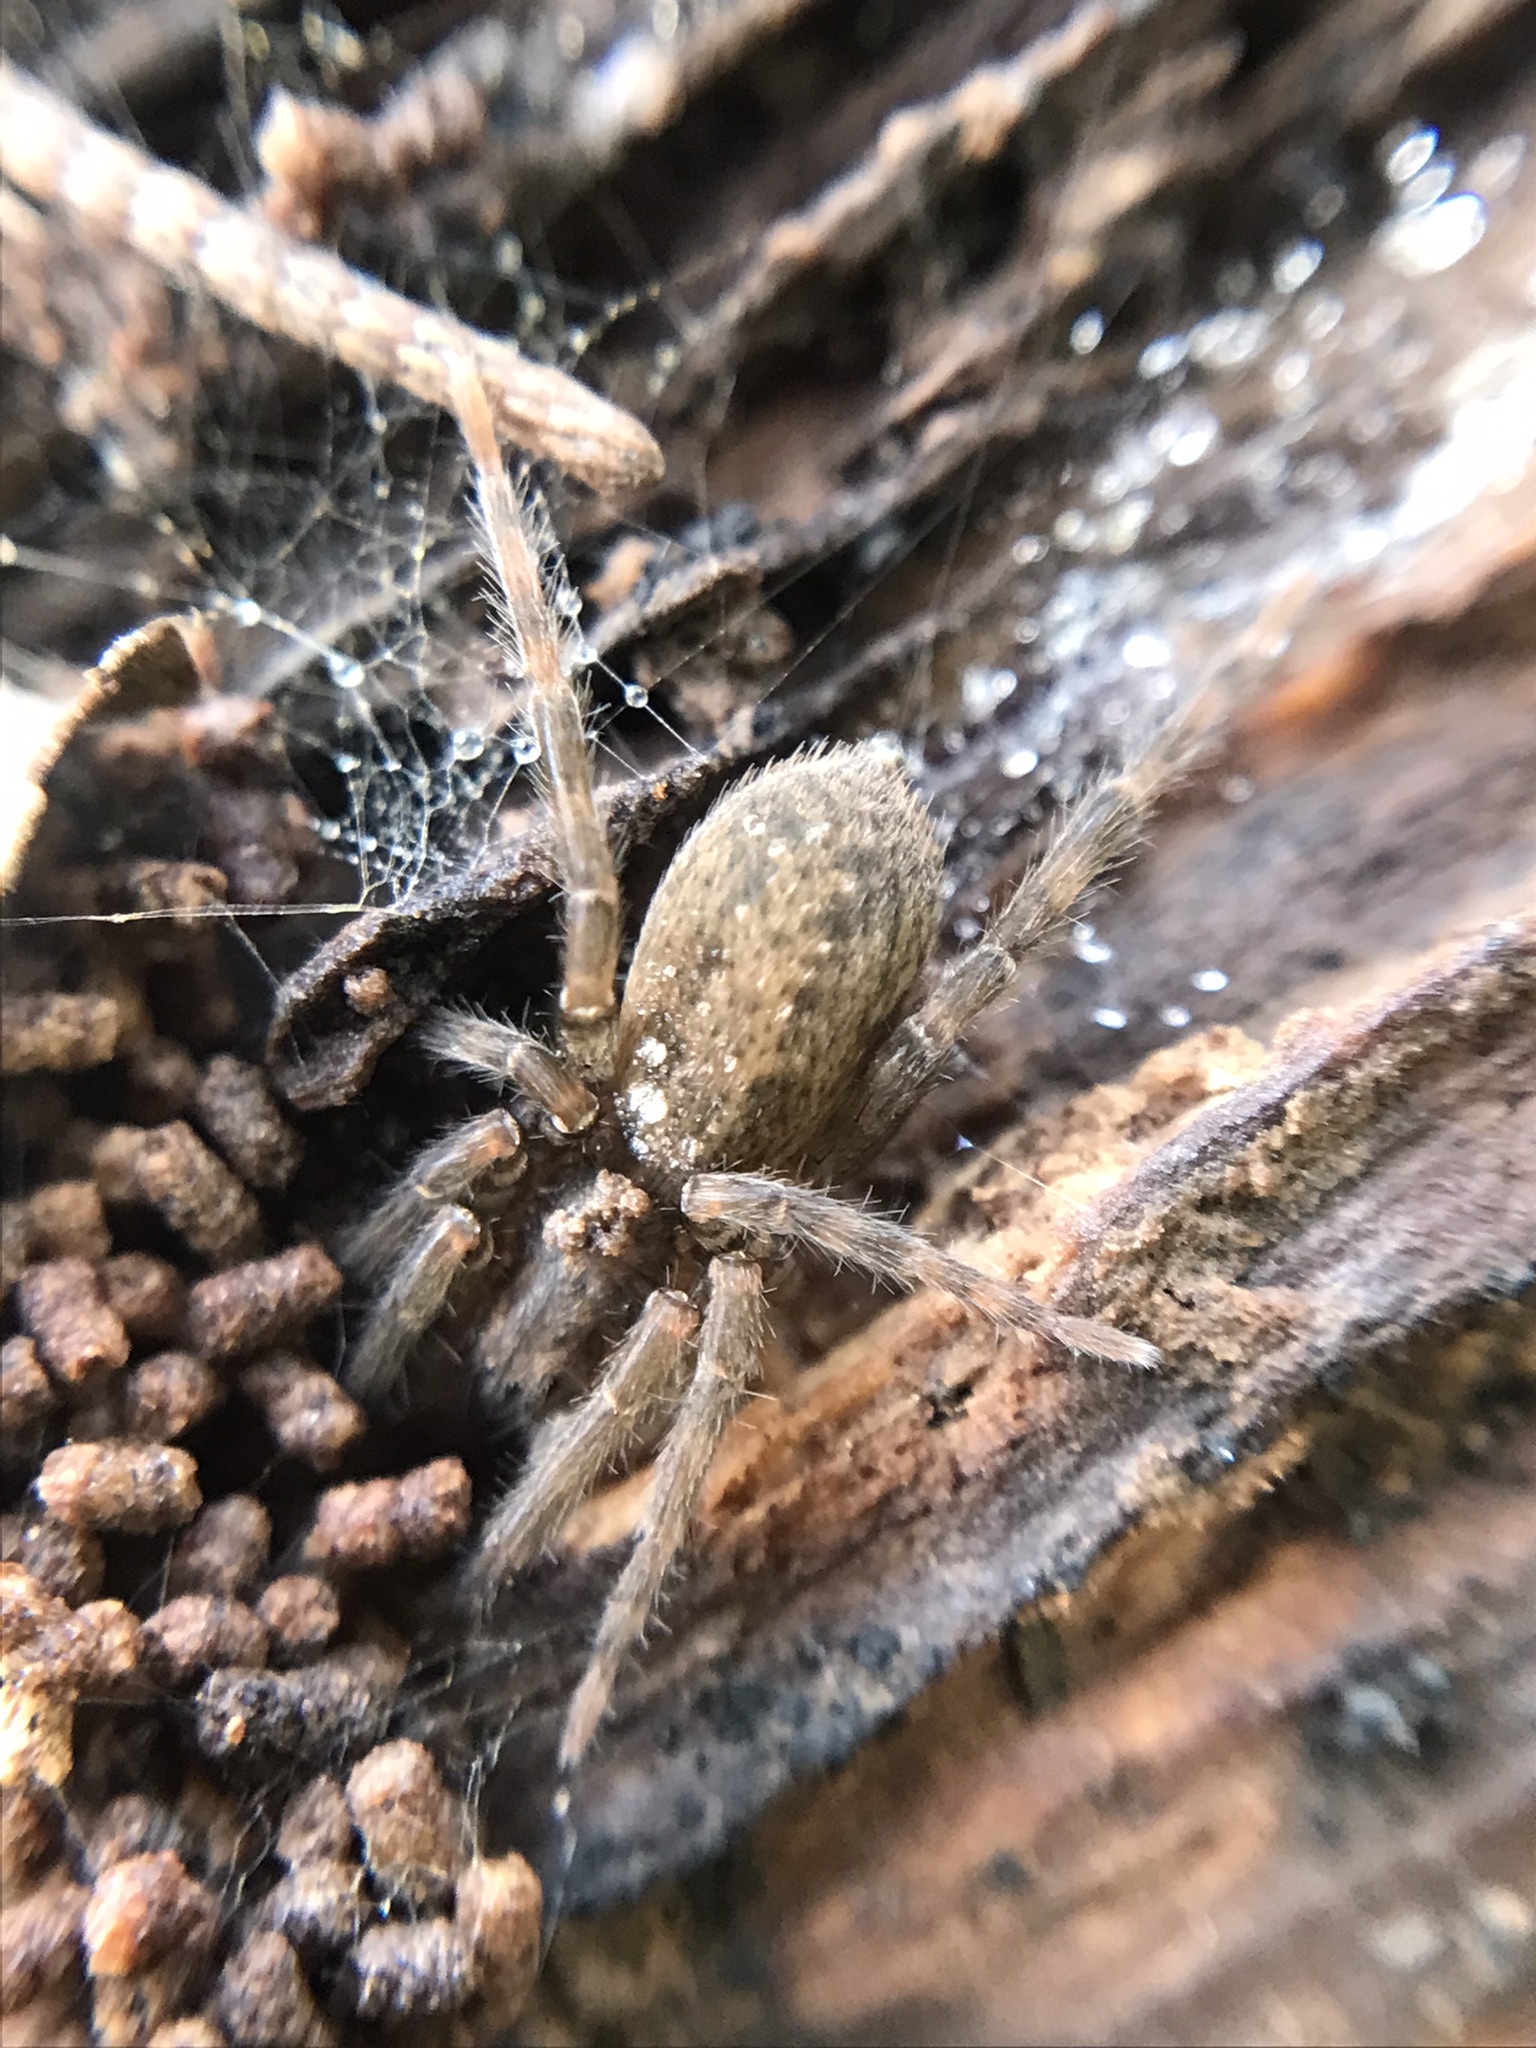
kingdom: Animalia
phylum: Arthropoda
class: Arachnida
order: Araneae
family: Ctenidae
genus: Asthenoctenus
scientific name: Asthenoctenus borellii
